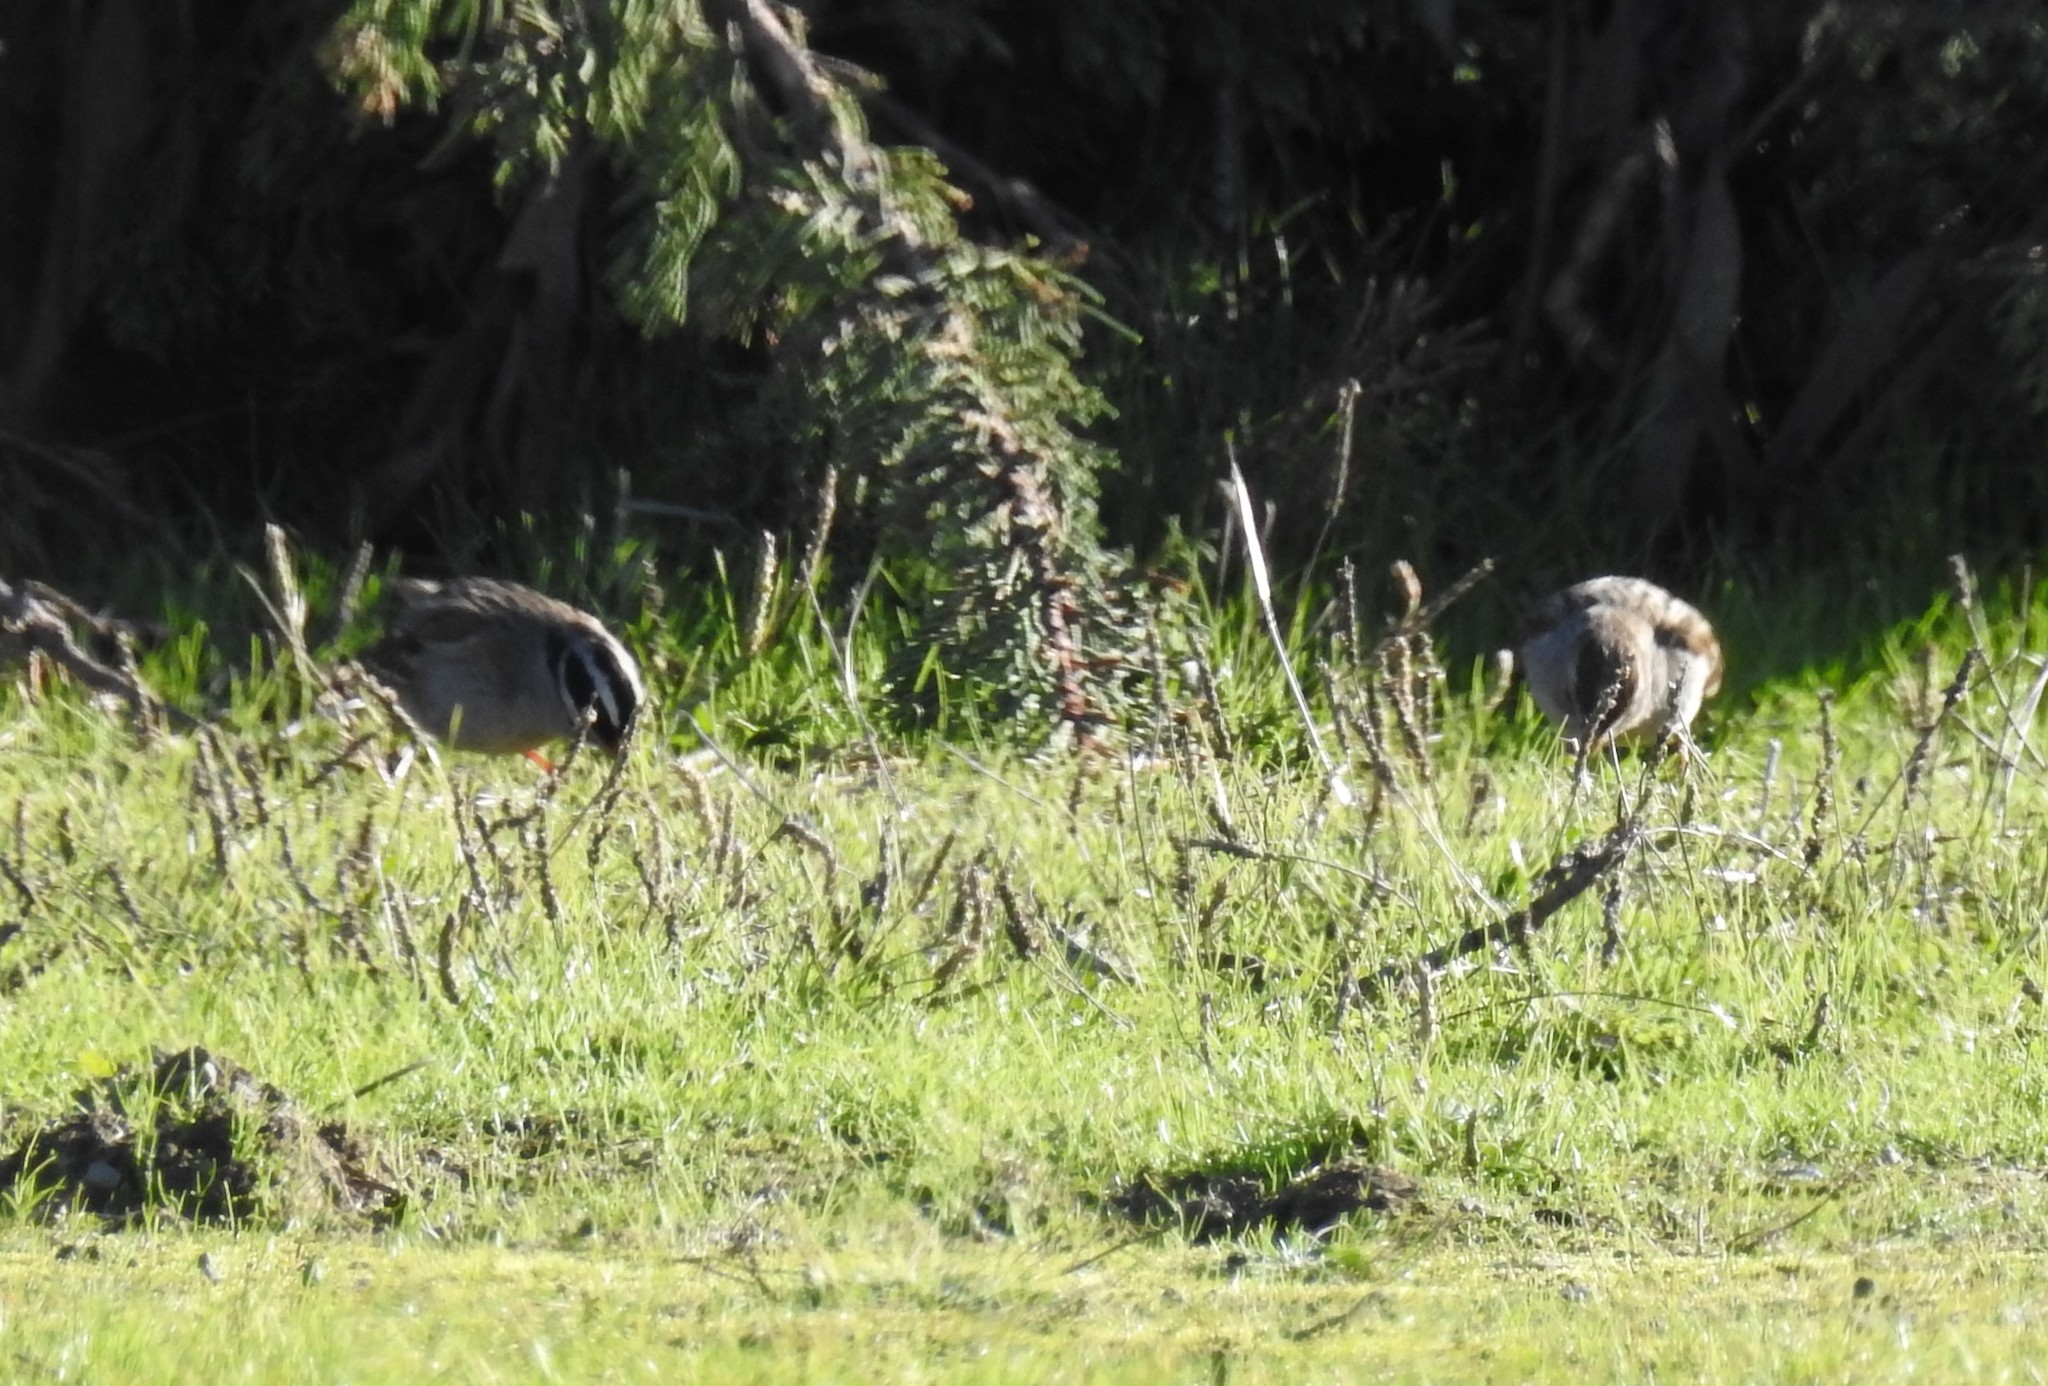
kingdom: Animalia
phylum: Chordata
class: Aves
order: Passeriformes
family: Passerellidae
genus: Zonotrichia
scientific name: Zonotrichia leucophrys
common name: White-crowned sparrow
